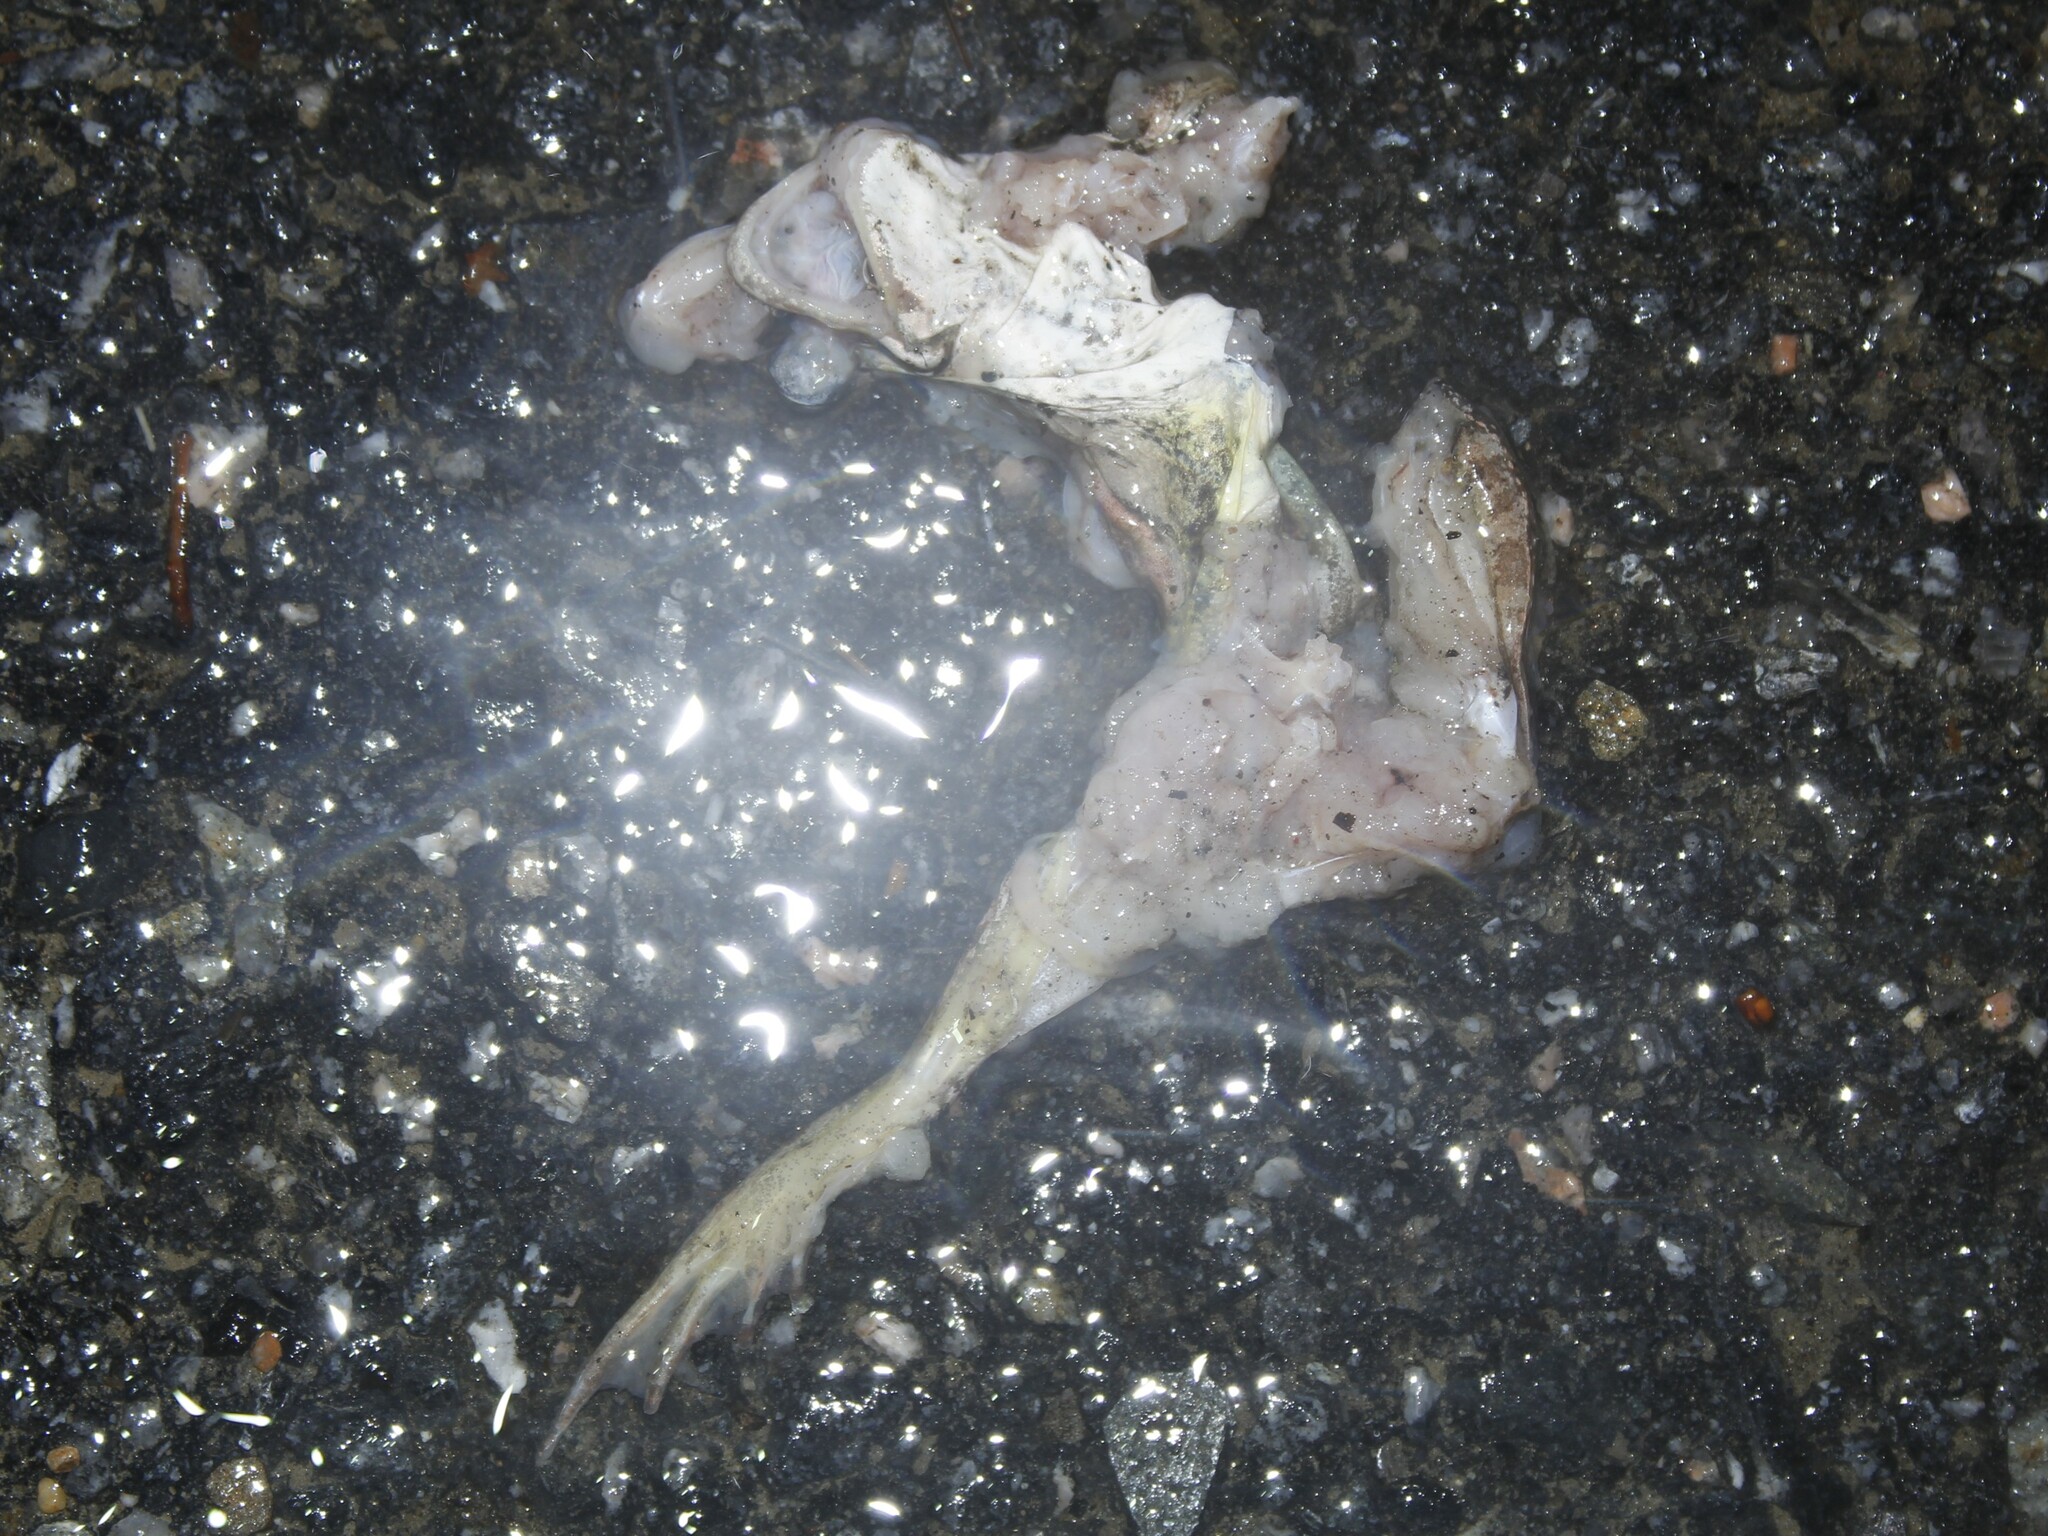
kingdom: Animalia
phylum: Chordata
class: Amphibia
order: Anura
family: Ranidae
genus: Lithobates
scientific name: Lithobates sylvaticus
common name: Wood frog
